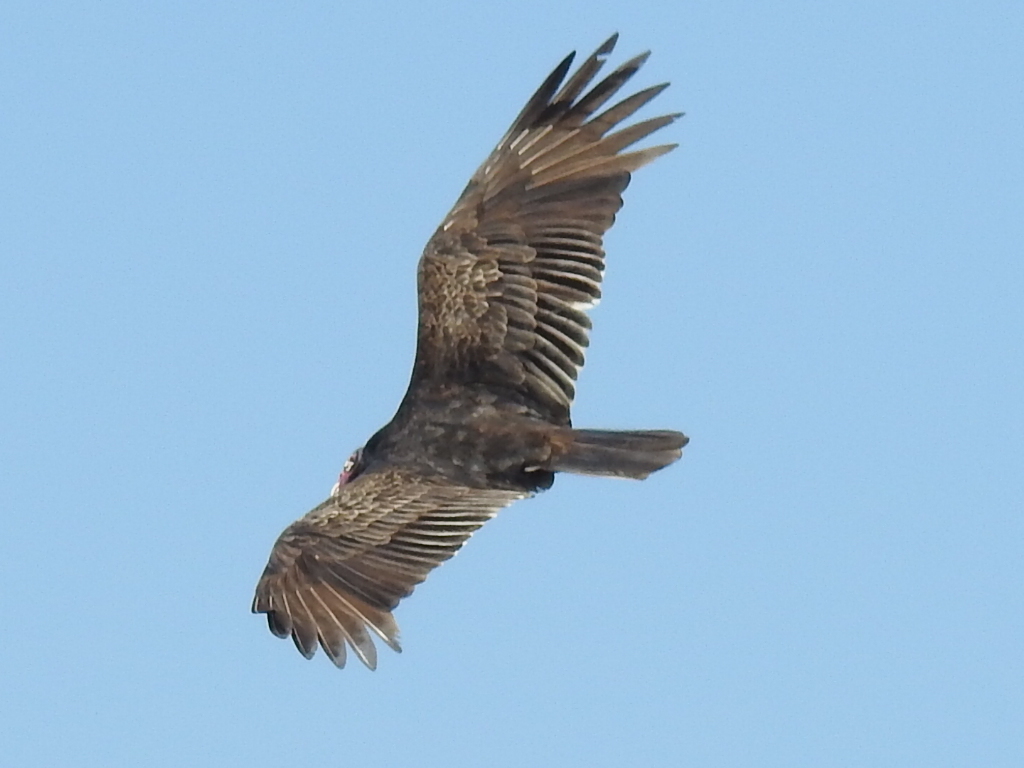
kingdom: Animalia
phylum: Chordata
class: Aves
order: Accipitriformes
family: Cathartidae
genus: Cathartes
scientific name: Cathartes aura
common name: Turkey vulture
